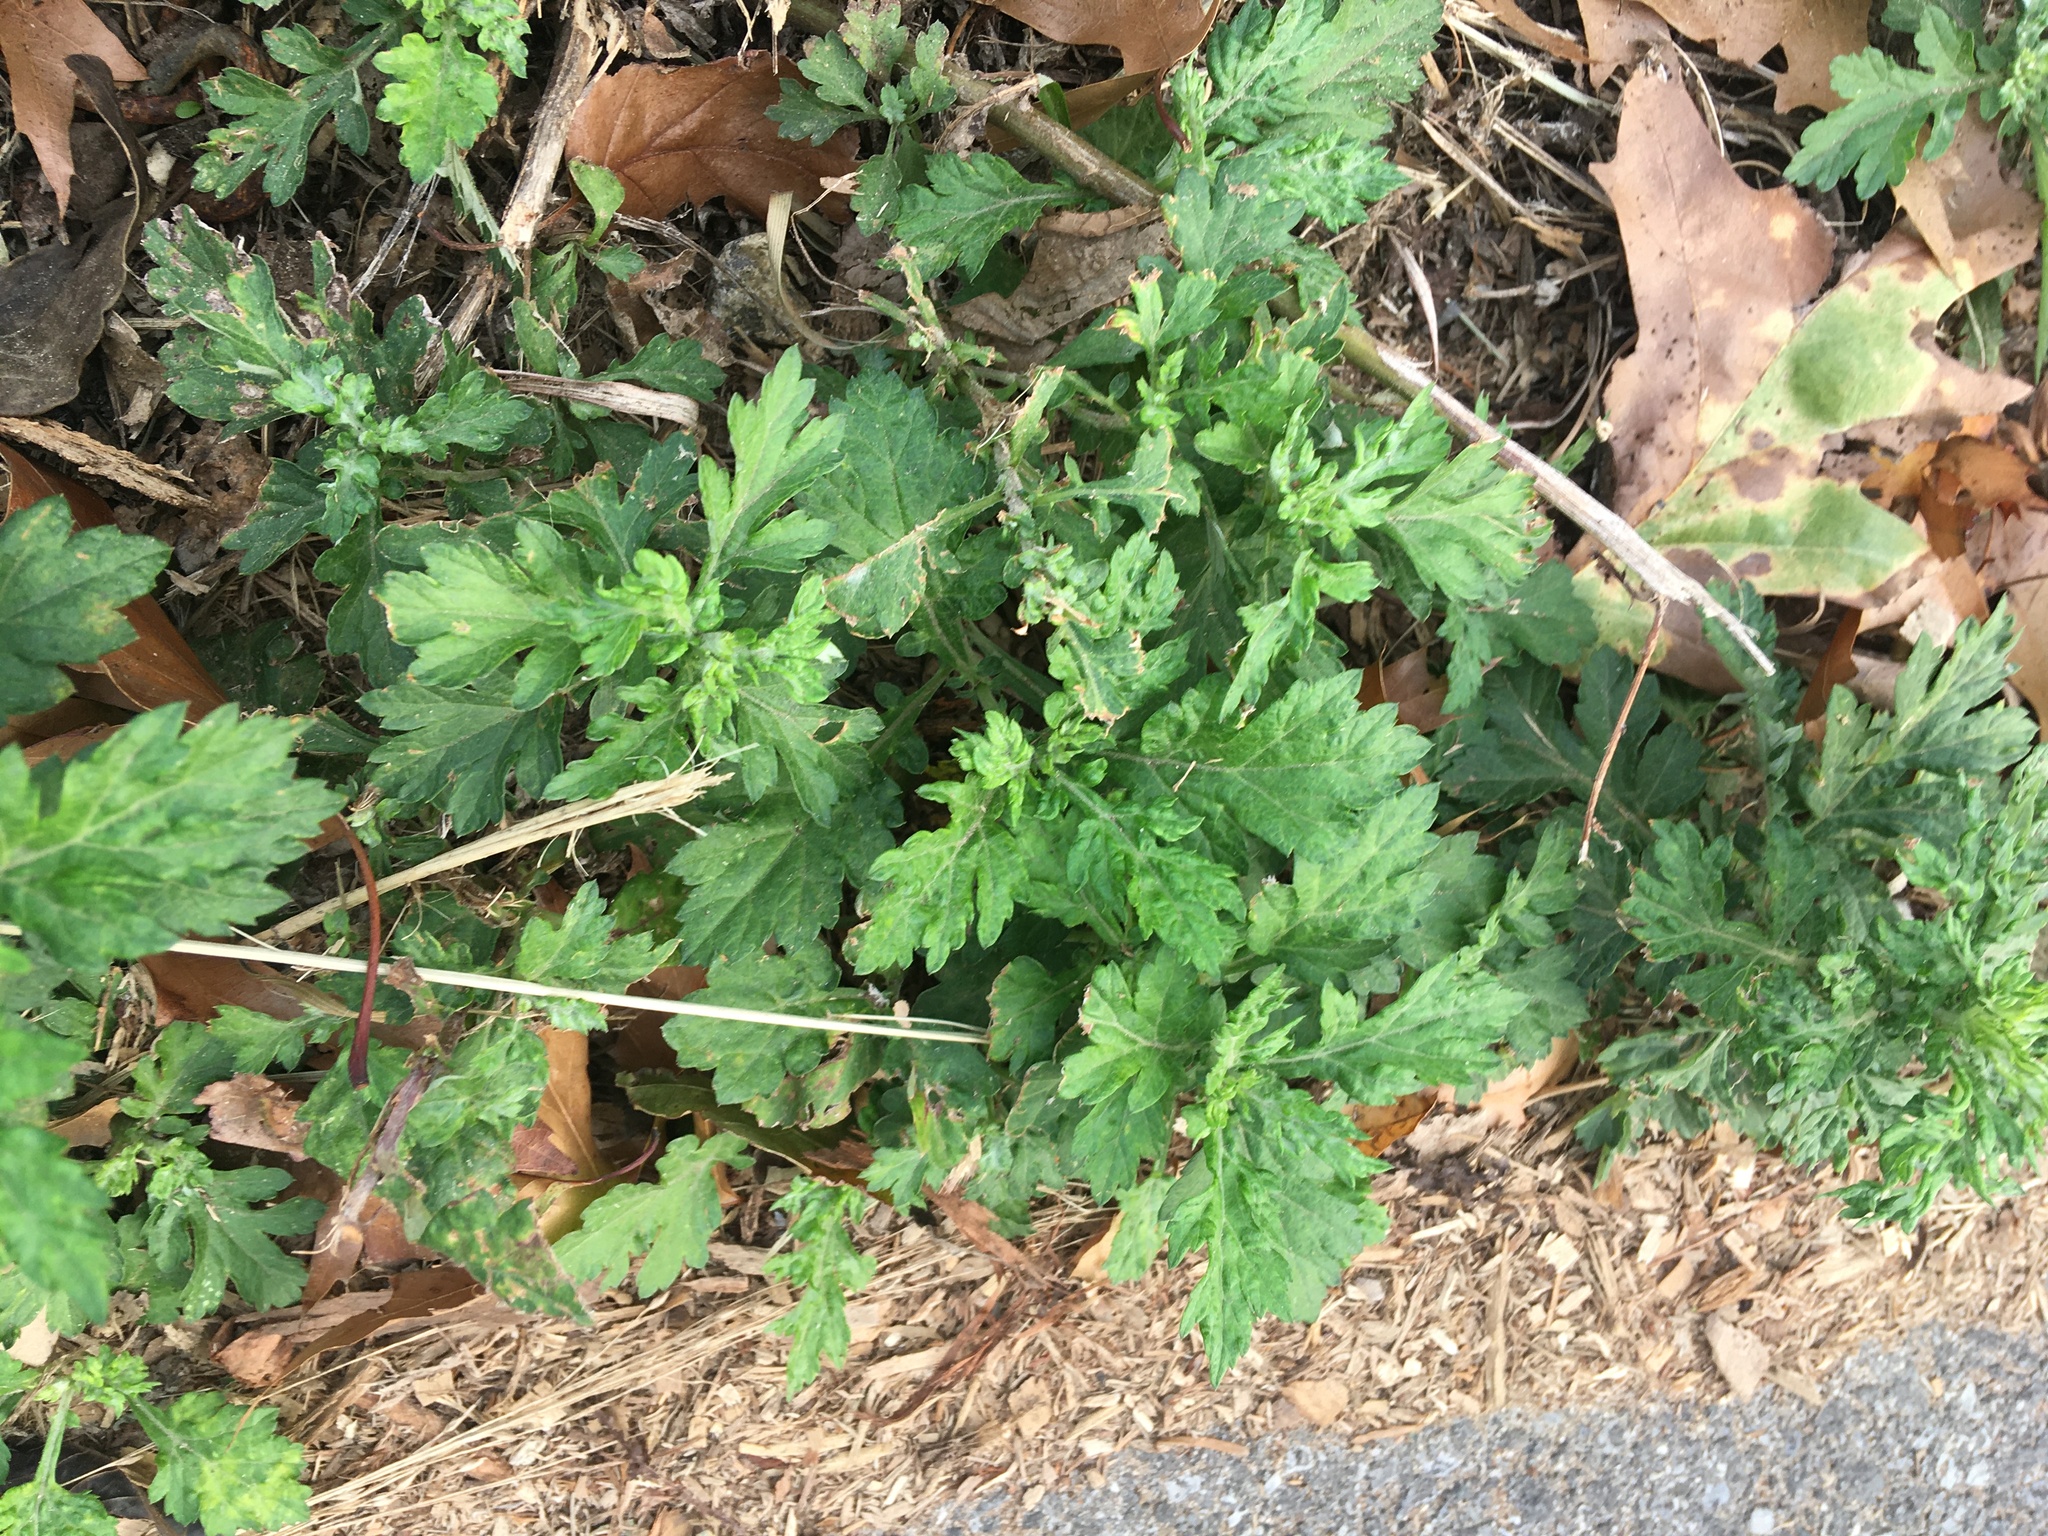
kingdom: Plantae
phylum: Tracheophyta
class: Magnoliopsida
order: Asterales
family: Asteraceae
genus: Artemisia
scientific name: Artemisia vulgaris
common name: Mugwort
